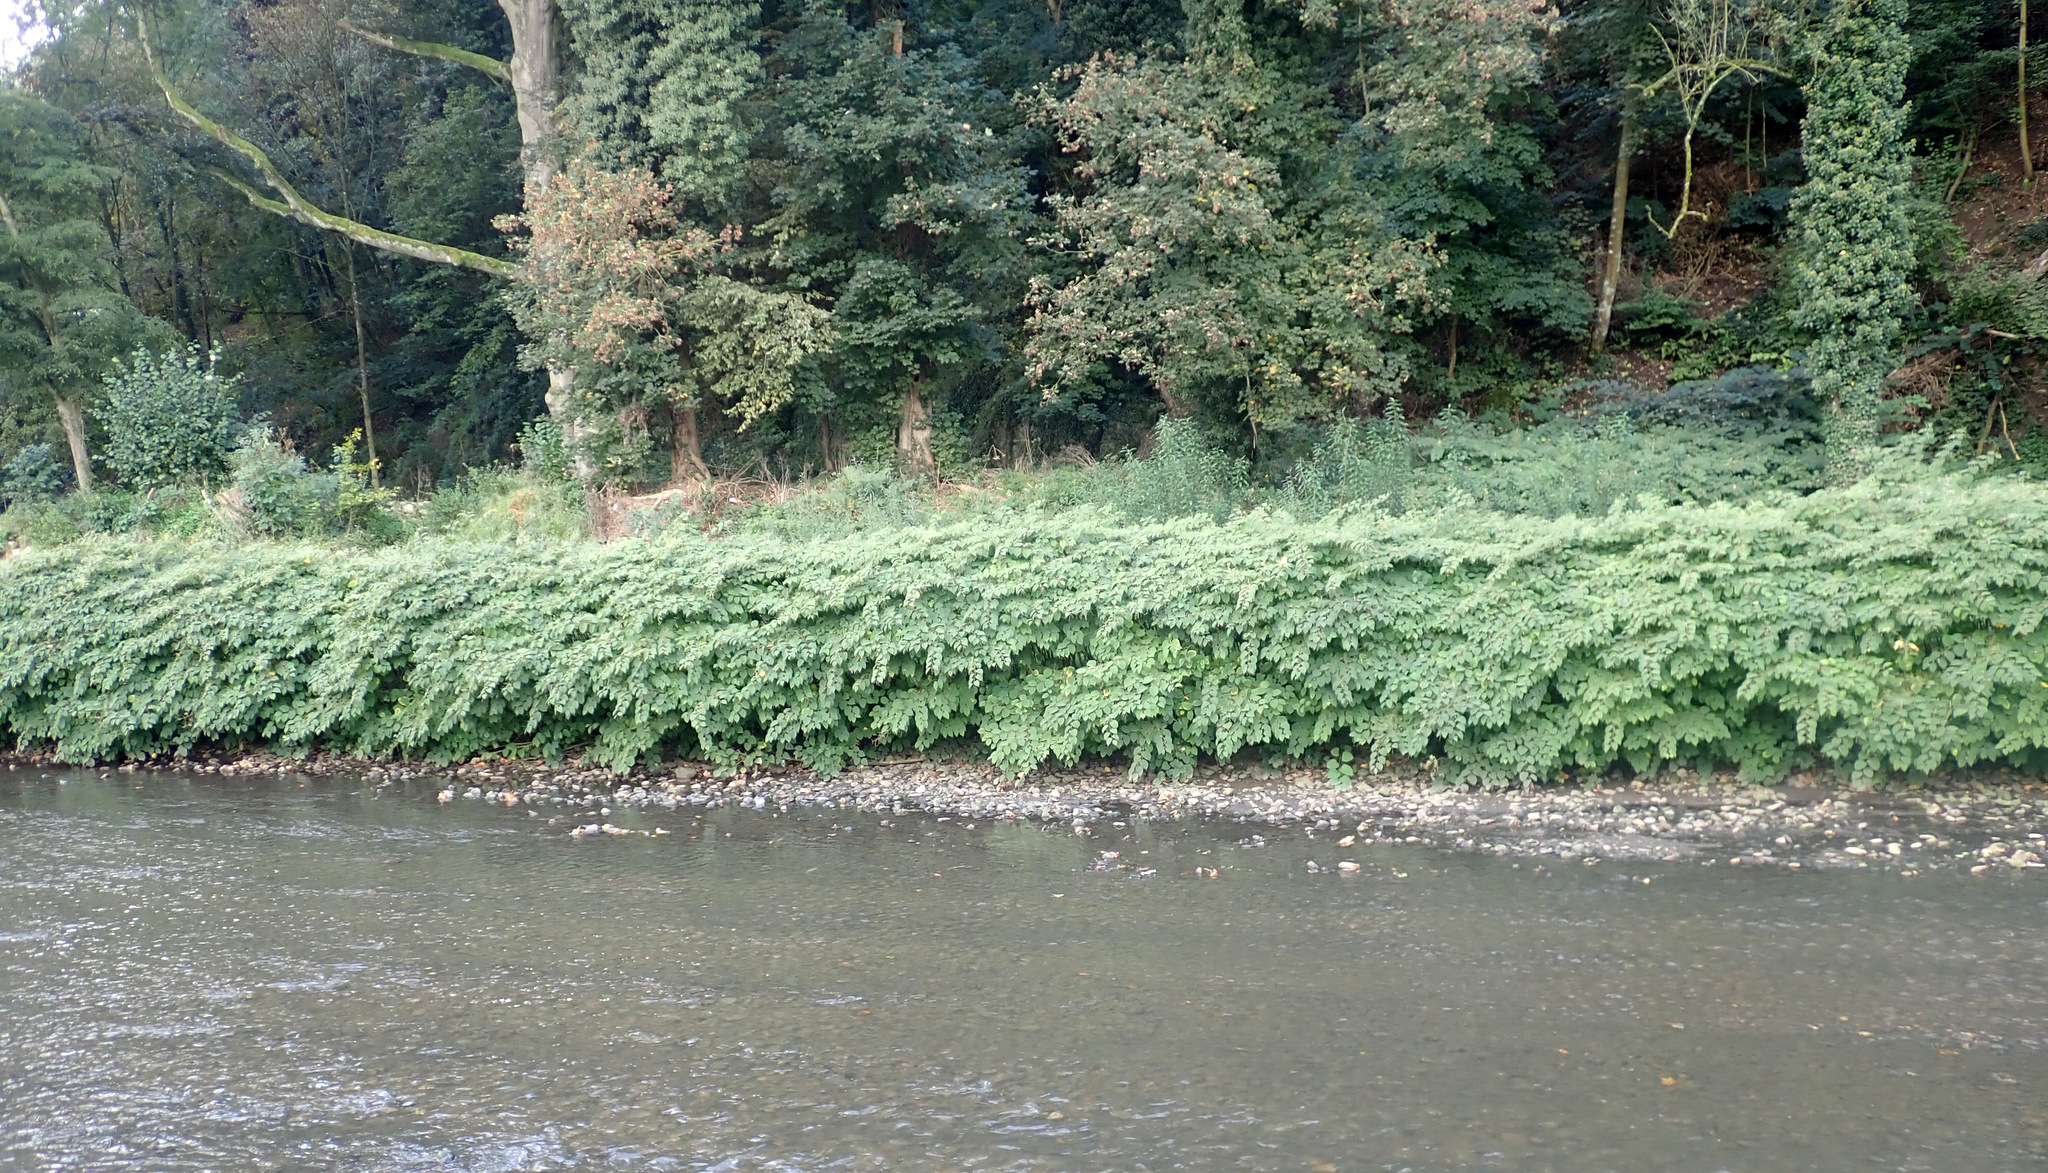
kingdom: Plantae
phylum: Tracheophyta
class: Magnoliopsida
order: Caryophyllales
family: Polygonaceae
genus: Reynoutria
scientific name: Reynoutria japonica
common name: Japanese knotweed
